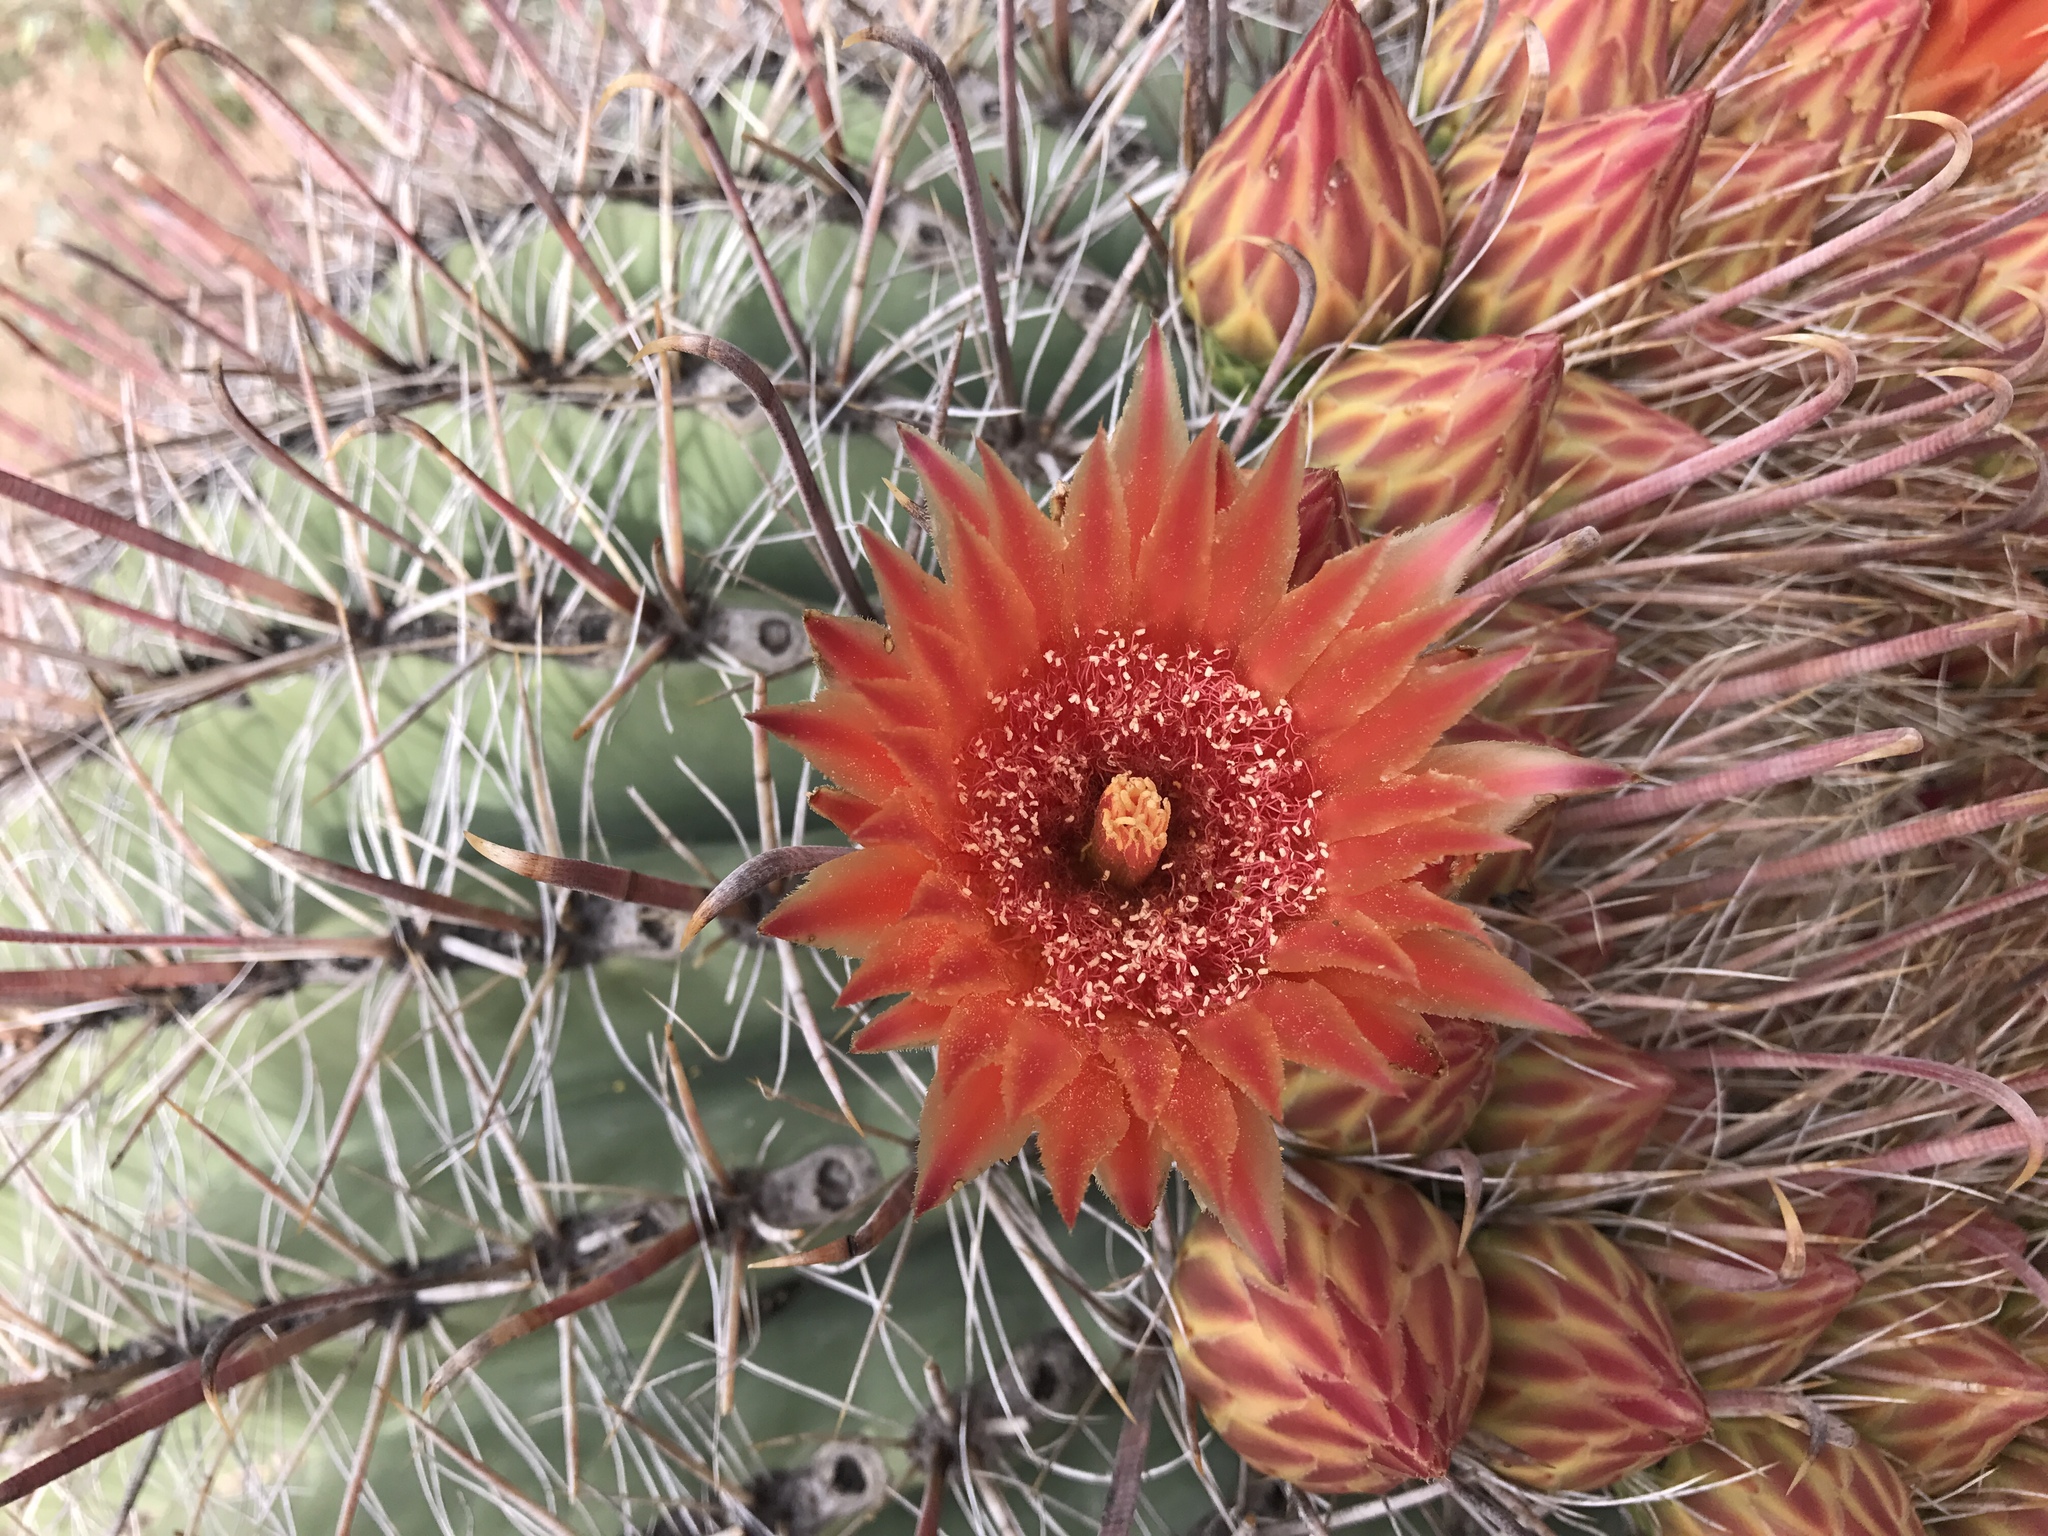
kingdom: Plantae
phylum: Tracheophyta
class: Magnoliopsida
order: Caryophyllales
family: Cactaceae
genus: Ferocactus
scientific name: Ferocactus wislizeni
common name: Candy barrel cactus
